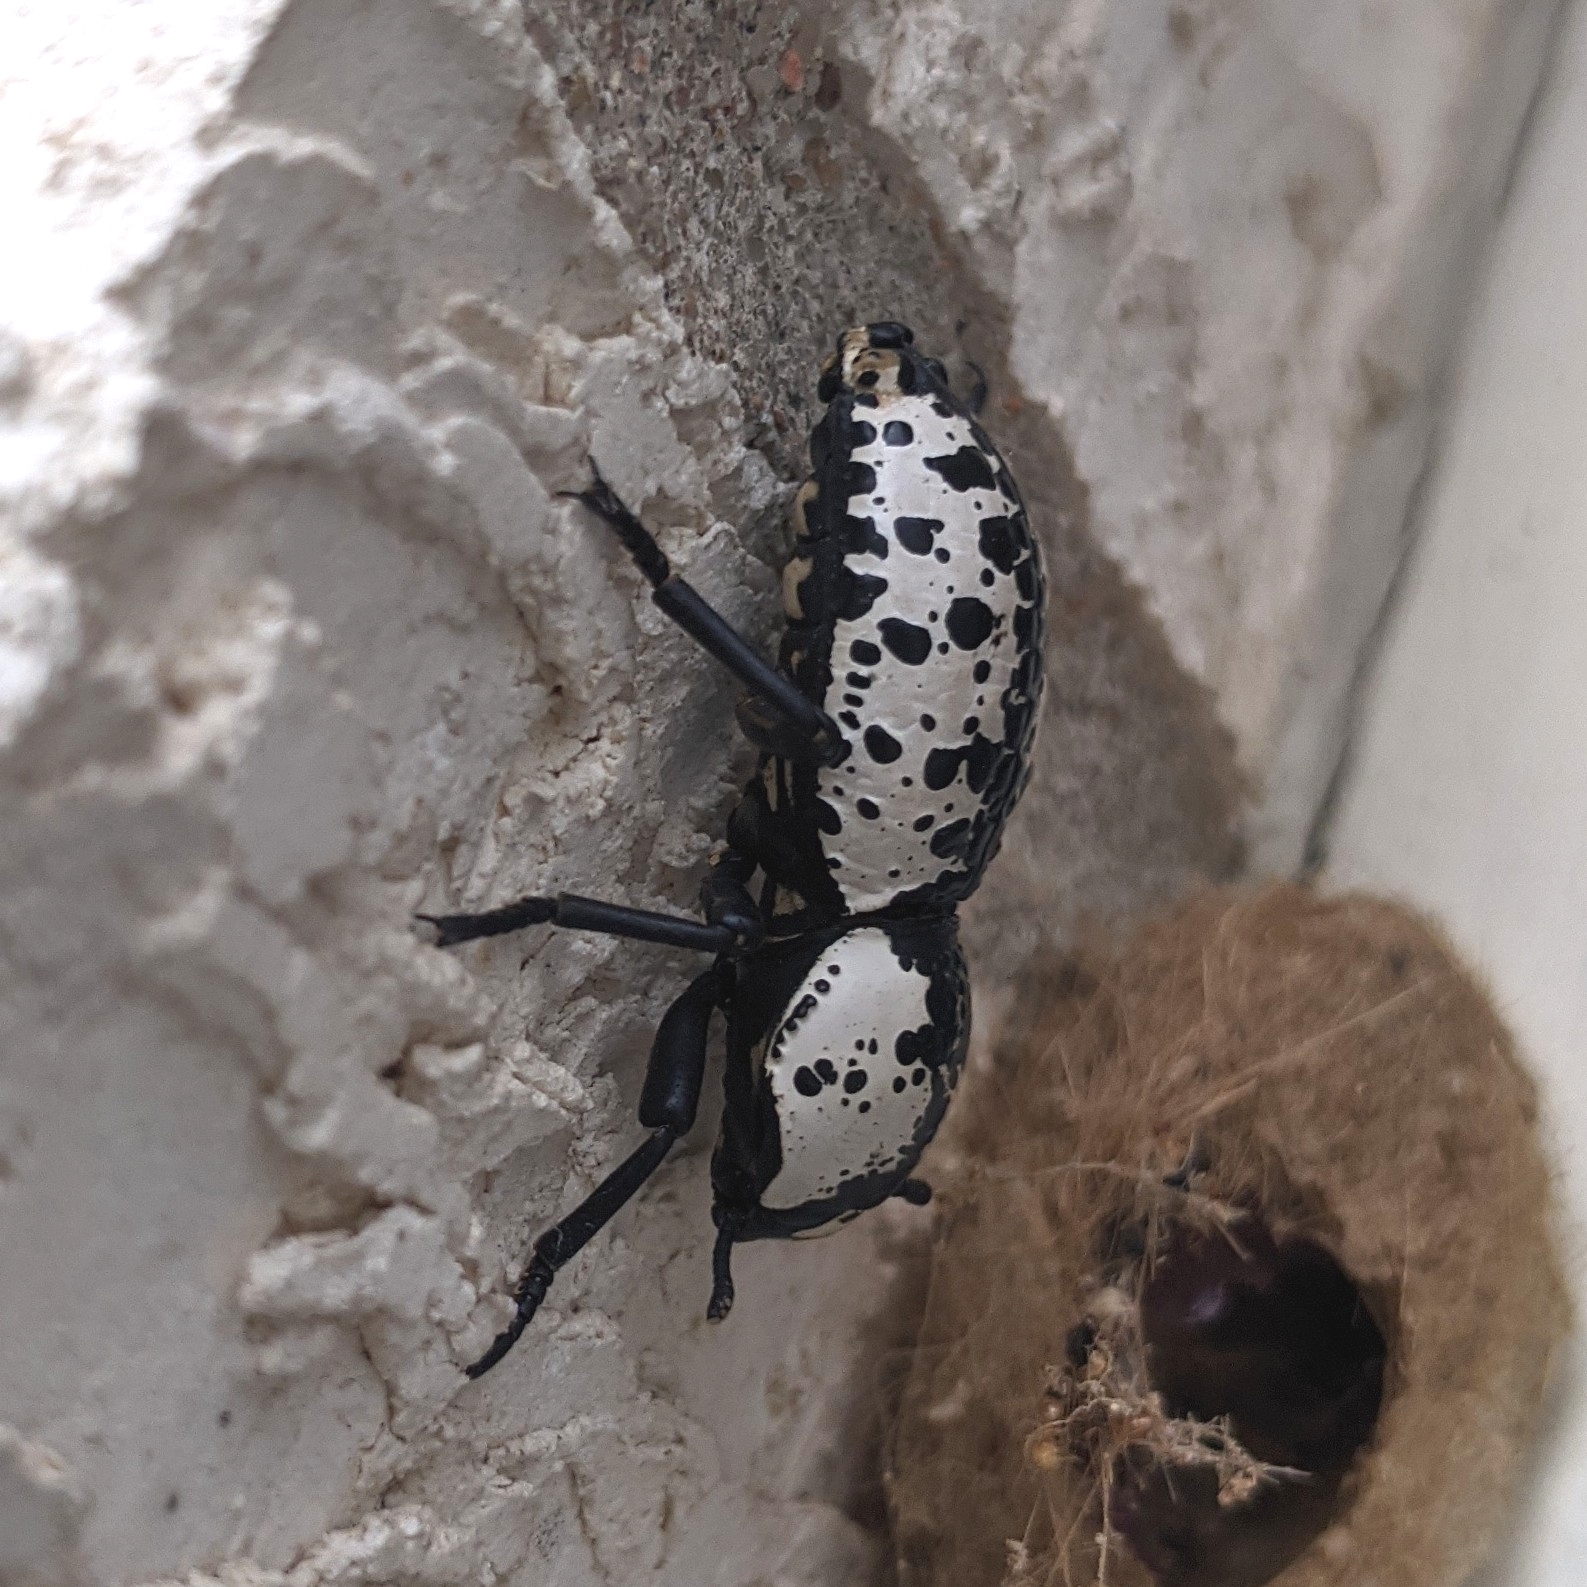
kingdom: Animalia
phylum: Arthropoda
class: Insecta
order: Coleoptera
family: Zopheridae
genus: Zopherus
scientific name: Zopherus nodulosus
